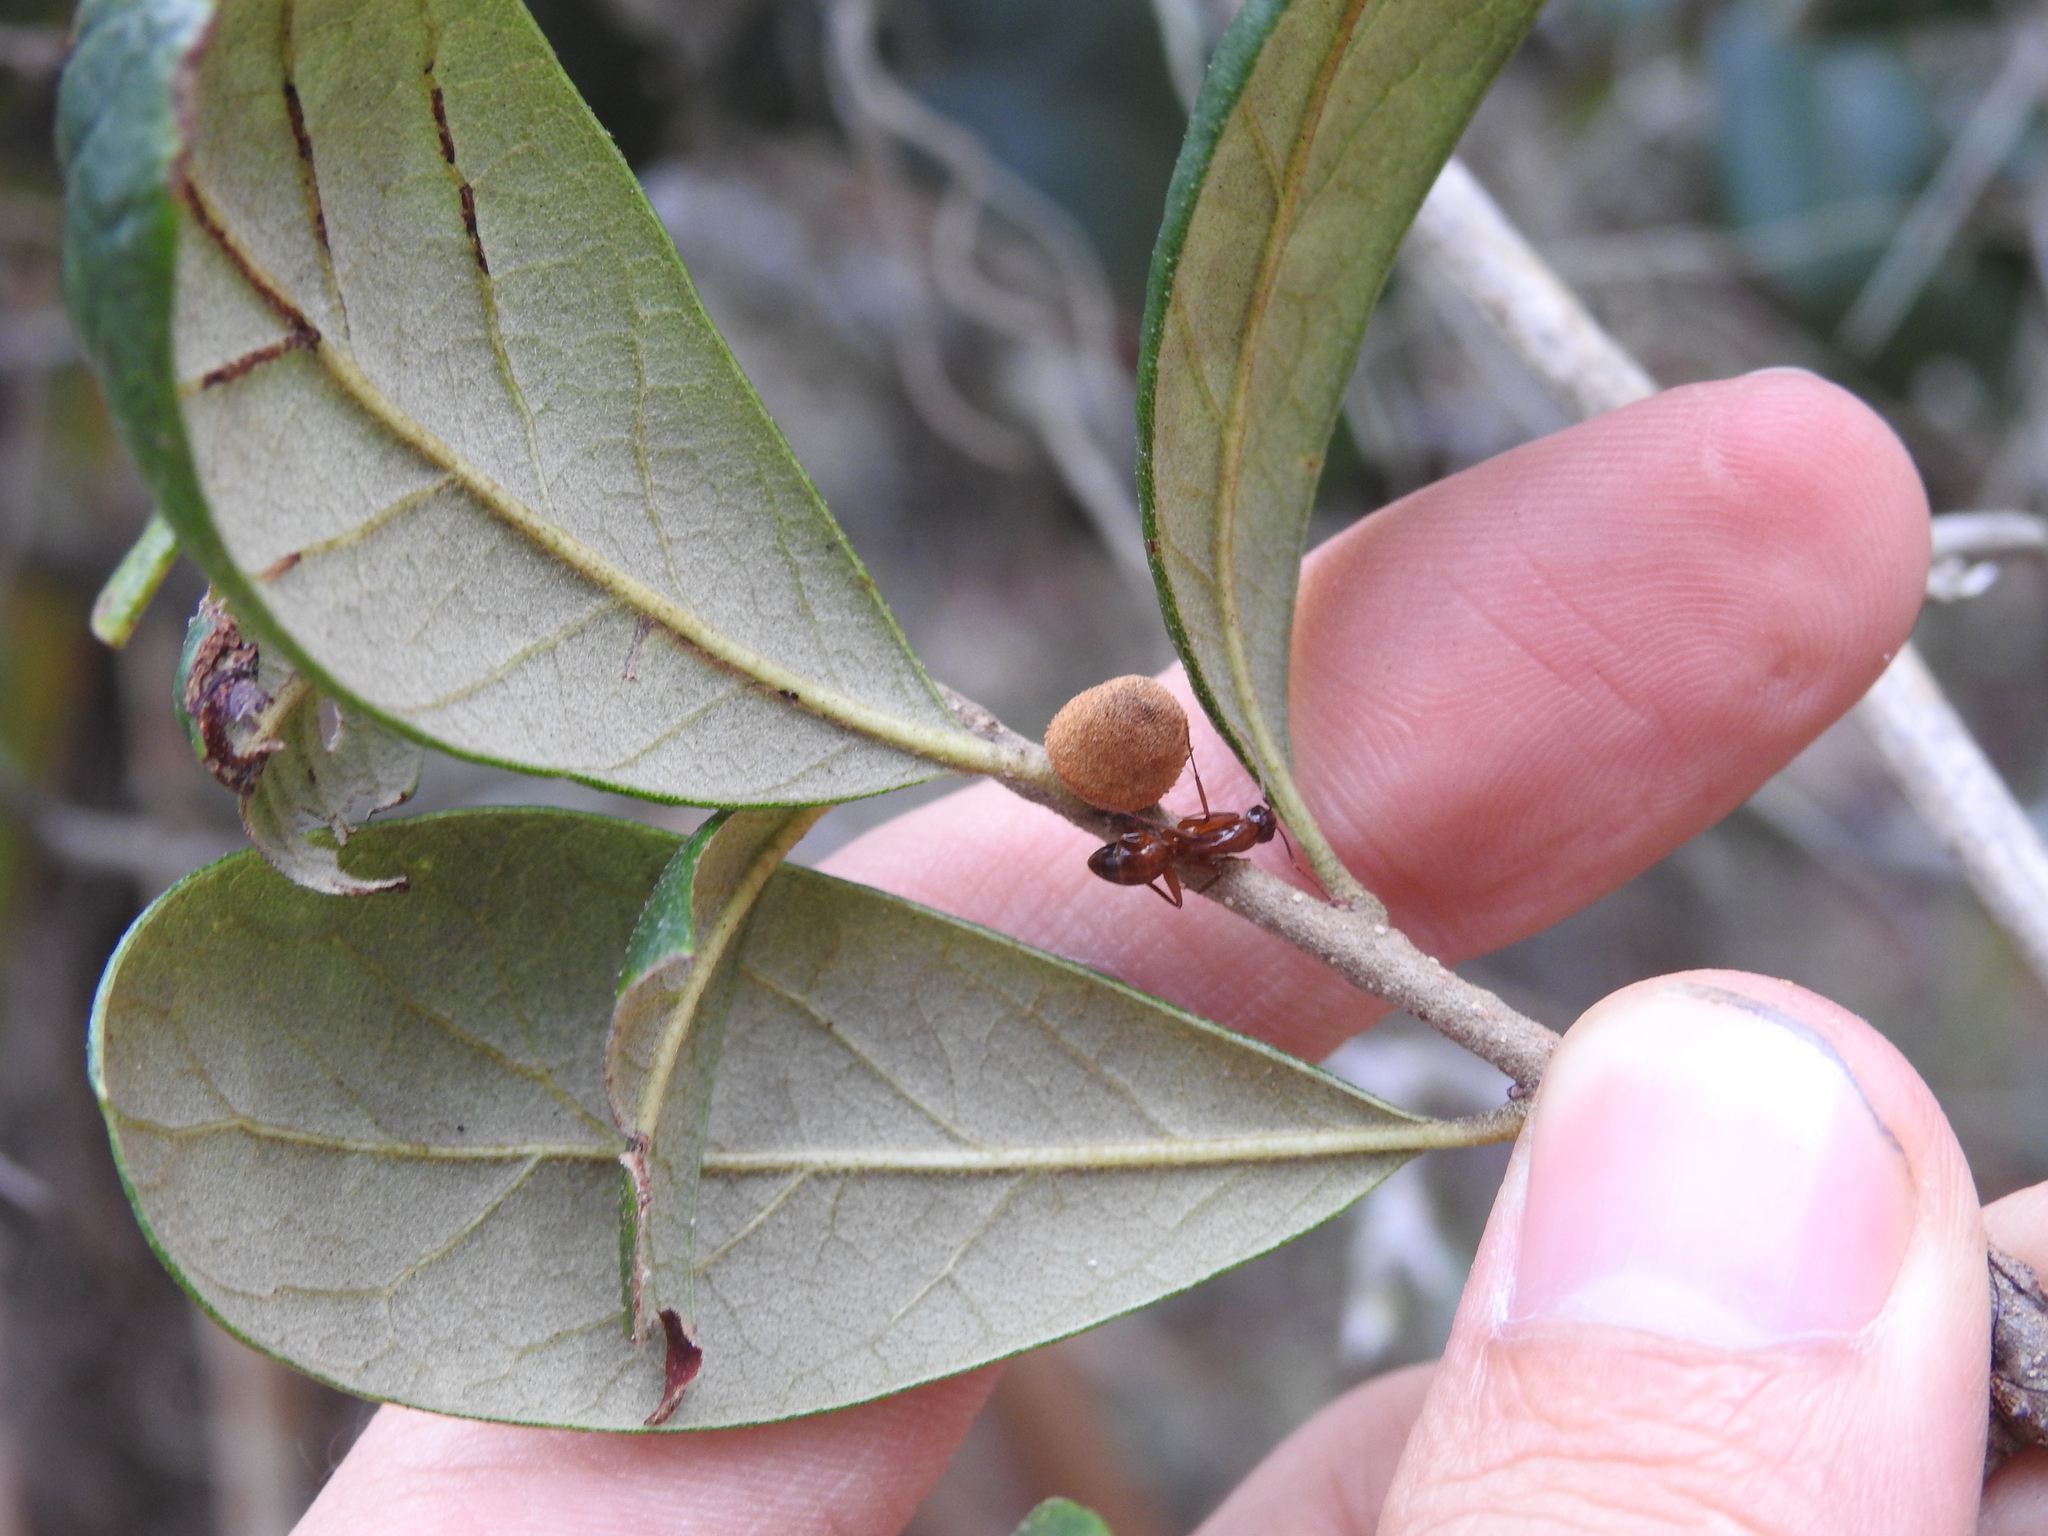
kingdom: Animalia
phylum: Arthropoda
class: Insecta
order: Hymenoptera
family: Formicidae
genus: Camponotus
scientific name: Camponotus castaneus
